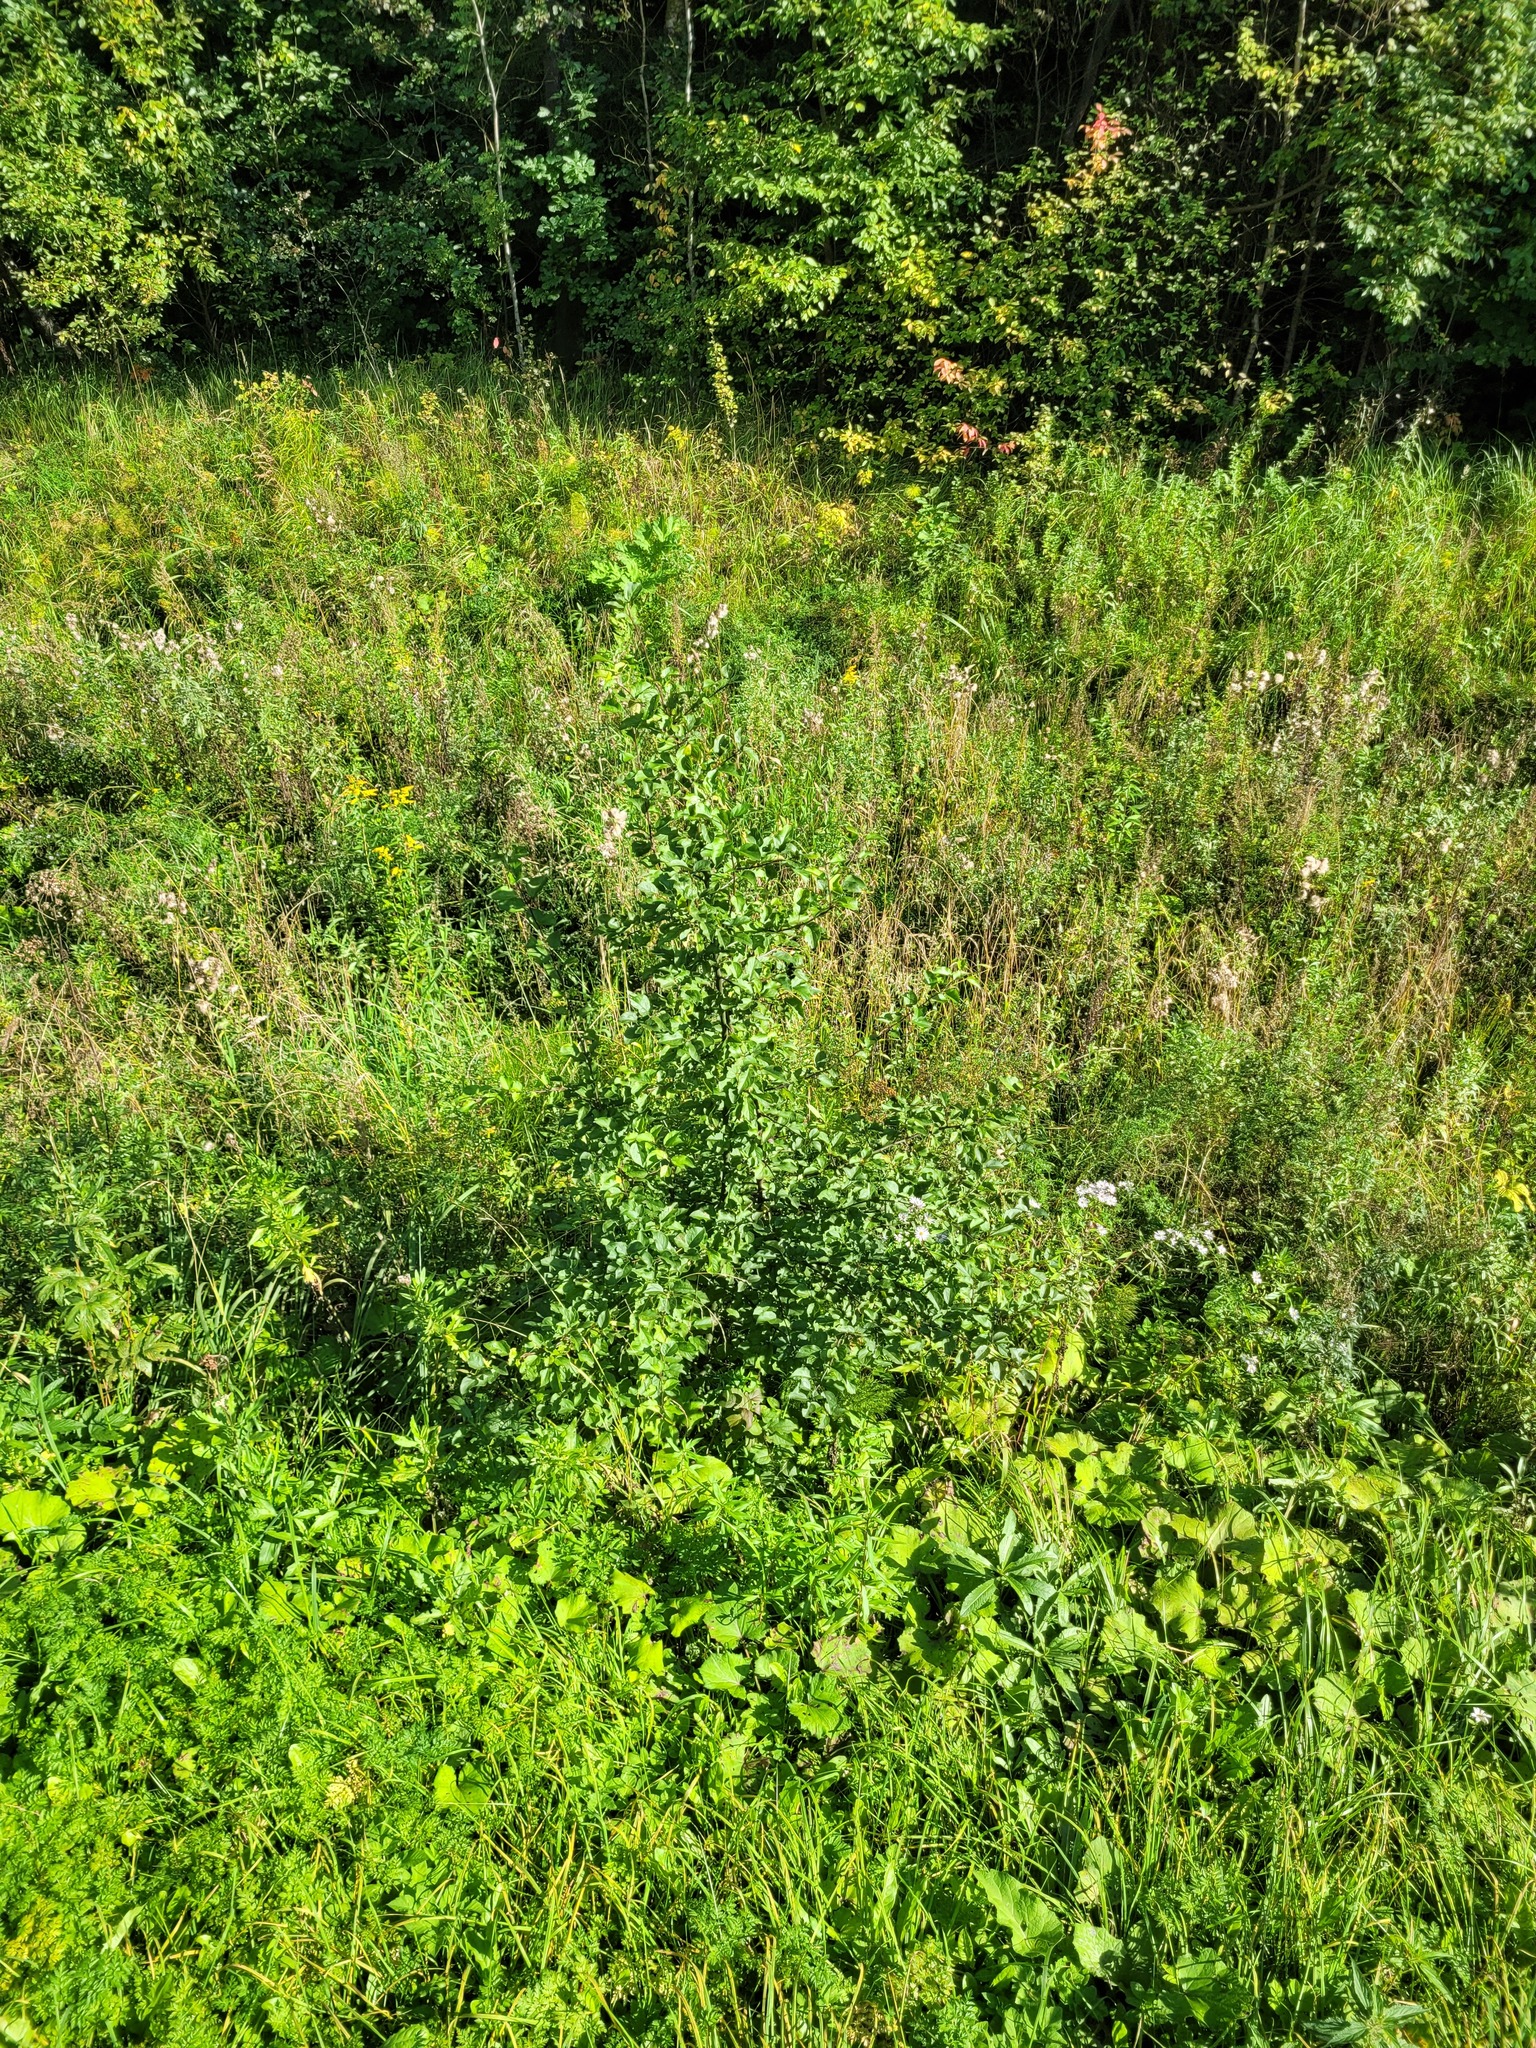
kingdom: Plantae
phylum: Tracheophyta
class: Magnoliopsida
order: Rosales
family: Rosaceae
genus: Malus
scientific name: Malus domestica
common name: Apple
